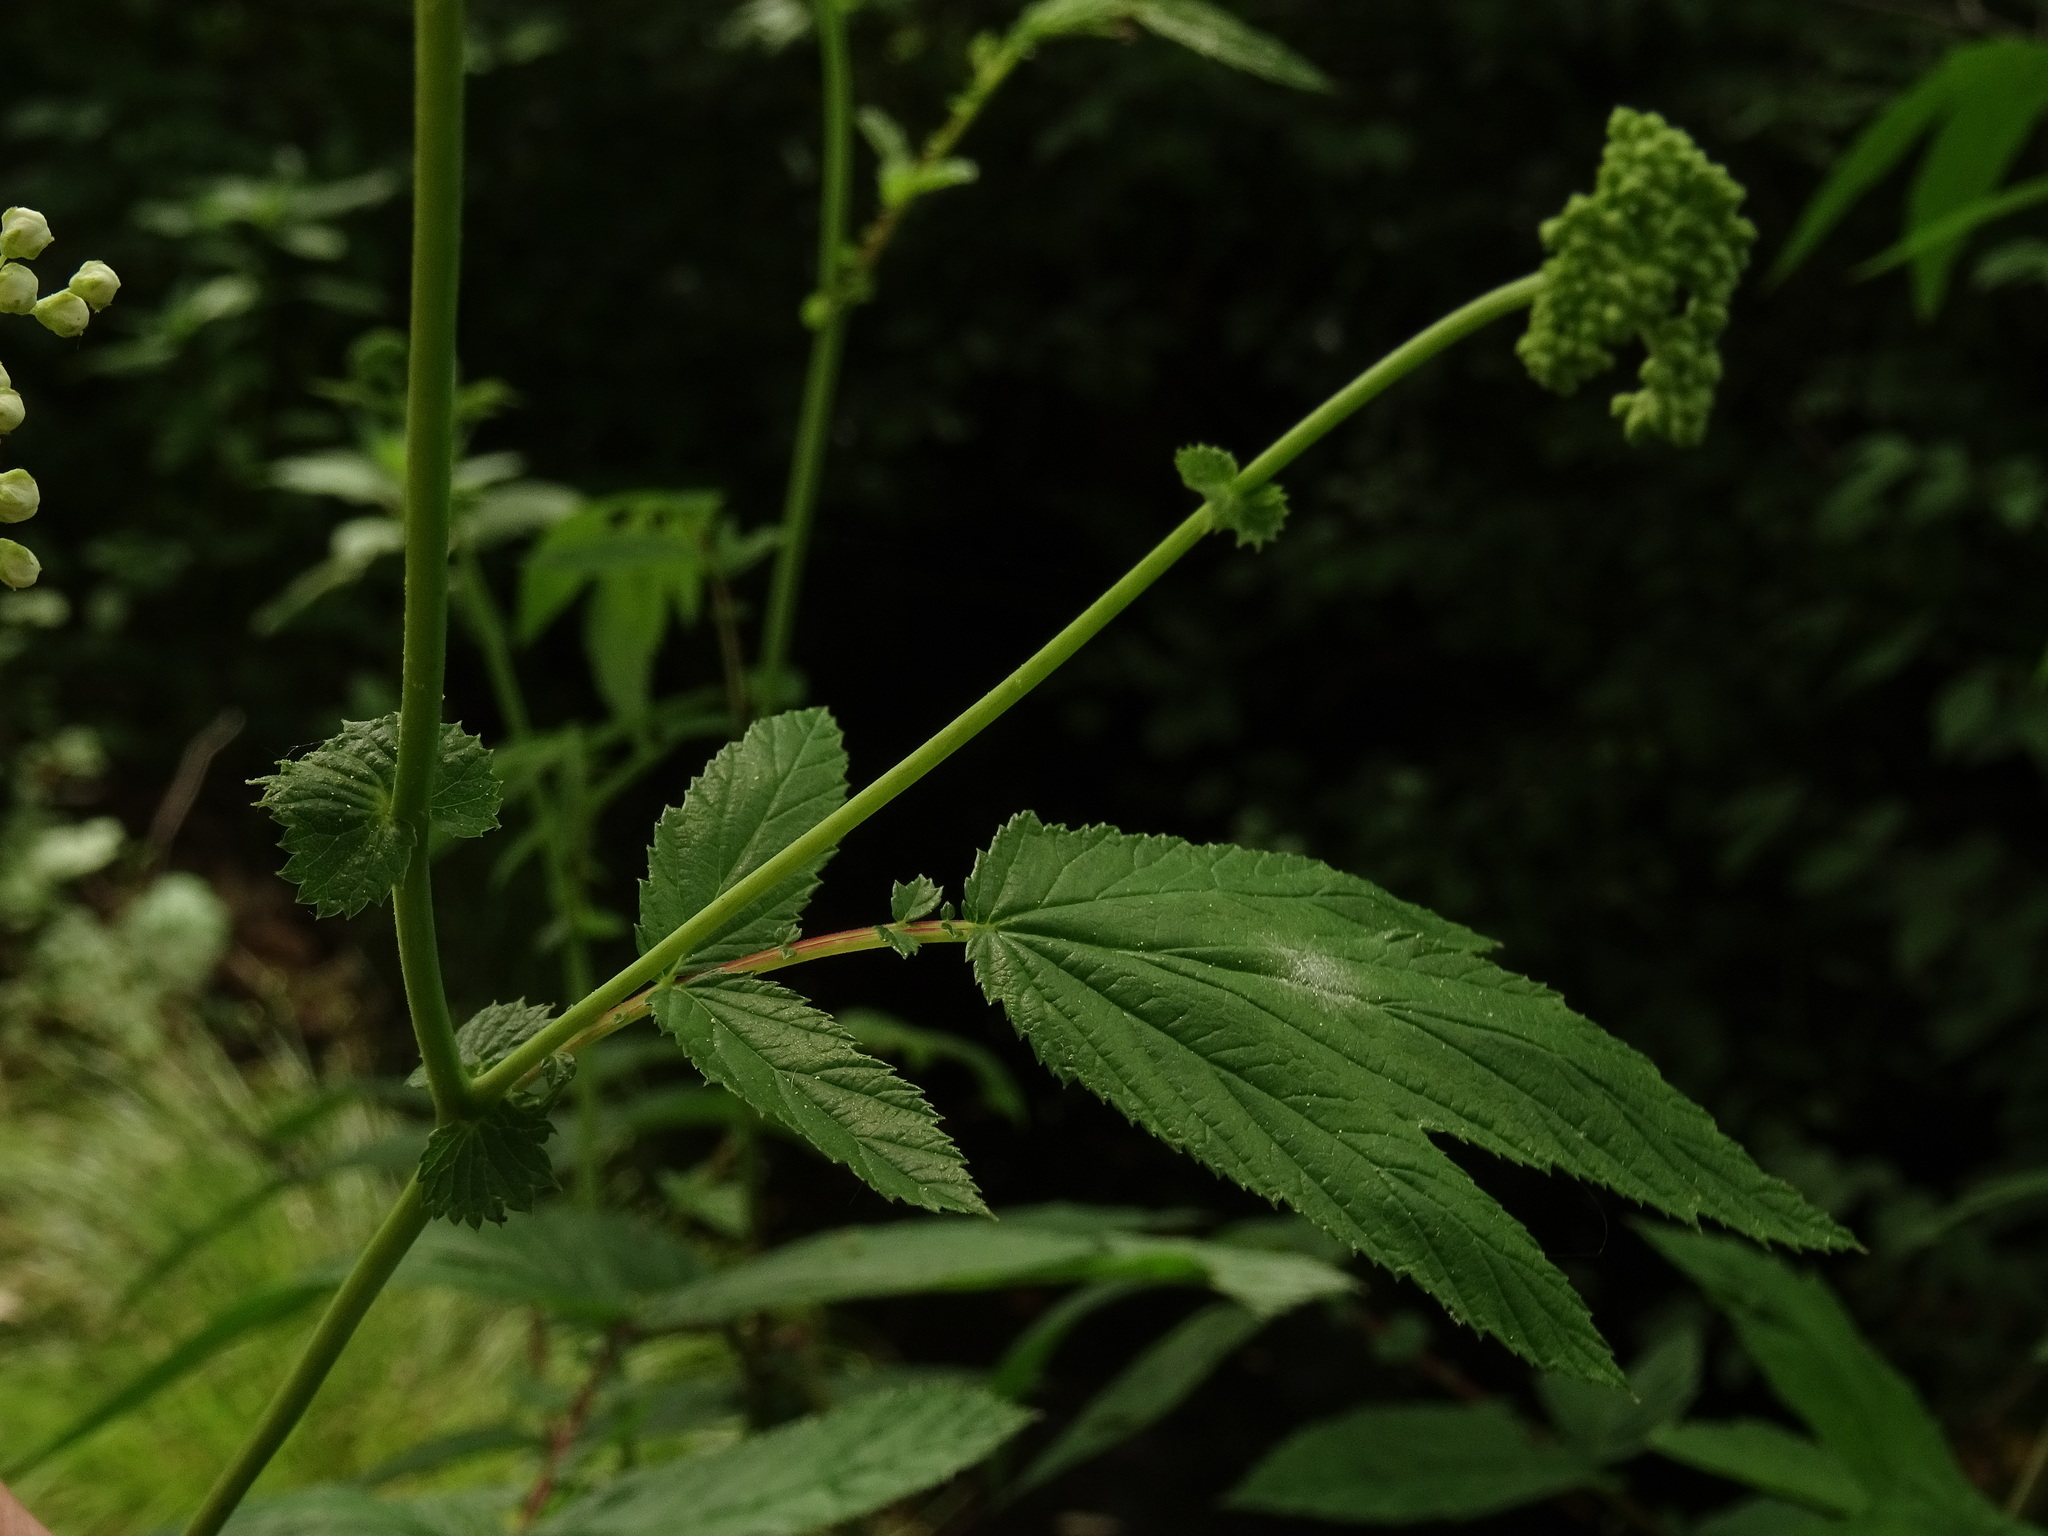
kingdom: Plantae
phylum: Tracheophyta
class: Magnoliopsida
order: Rosales
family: Rosaceae
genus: Filipendula
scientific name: Filipendula ulmaria
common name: Meadowsweet
